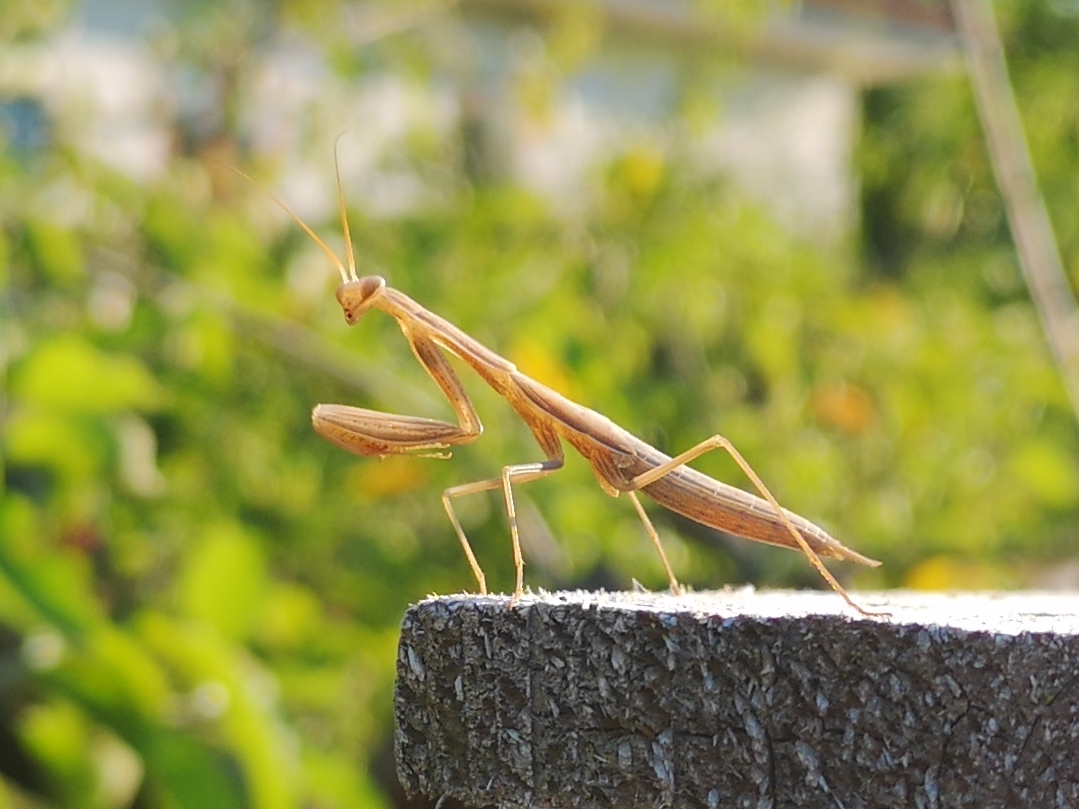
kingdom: Animalia
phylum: Arthropoda
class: Insecta
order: Mantodea
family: Mantidae
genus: Mantis
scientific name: Mantis religiosa
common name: Praying mantis
